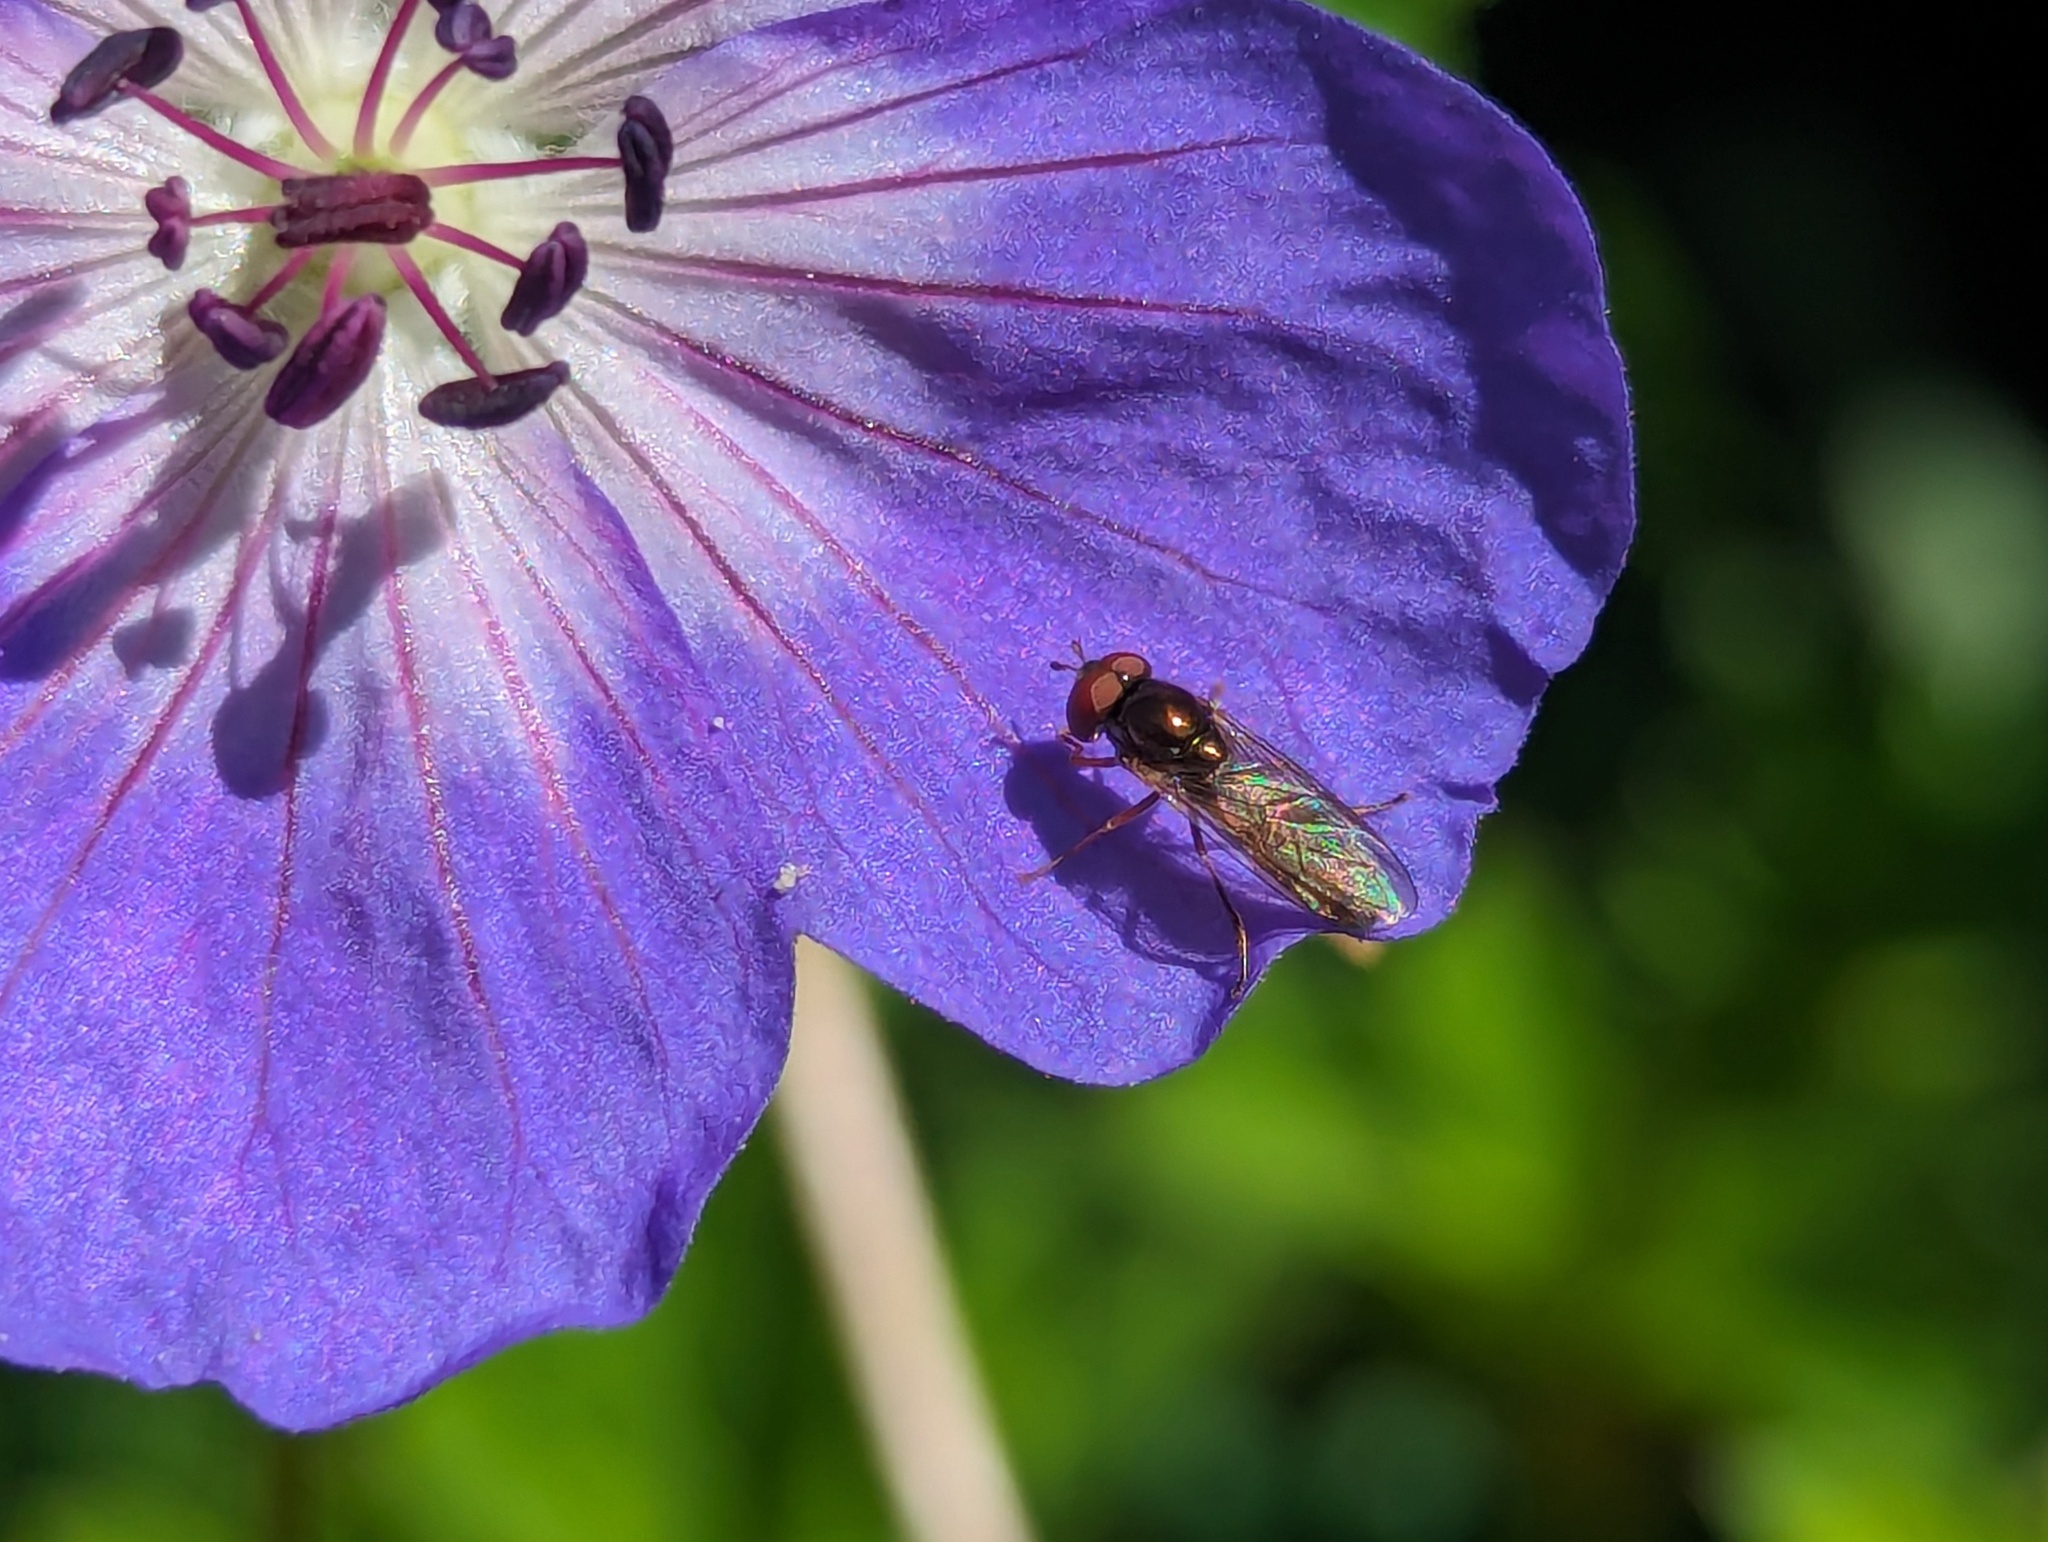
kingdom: Animalia
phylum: Arthropoda
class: Insecta
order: Diptera
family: Syrphidae
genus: Melanostoma
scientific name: Melanostoma fasciatum
